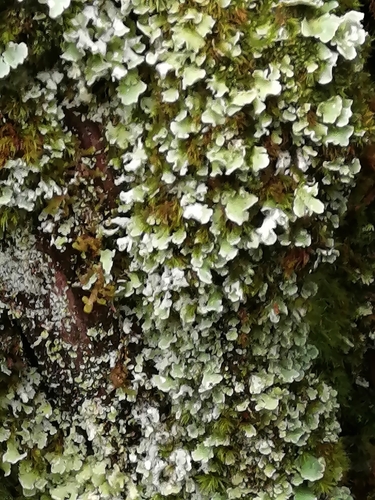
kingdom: Fungi
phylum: Ascomycota
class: Lecanoromycetes
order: Lecanorales
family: Cladoniaceae
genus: Cladonia
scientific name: Cladonia
